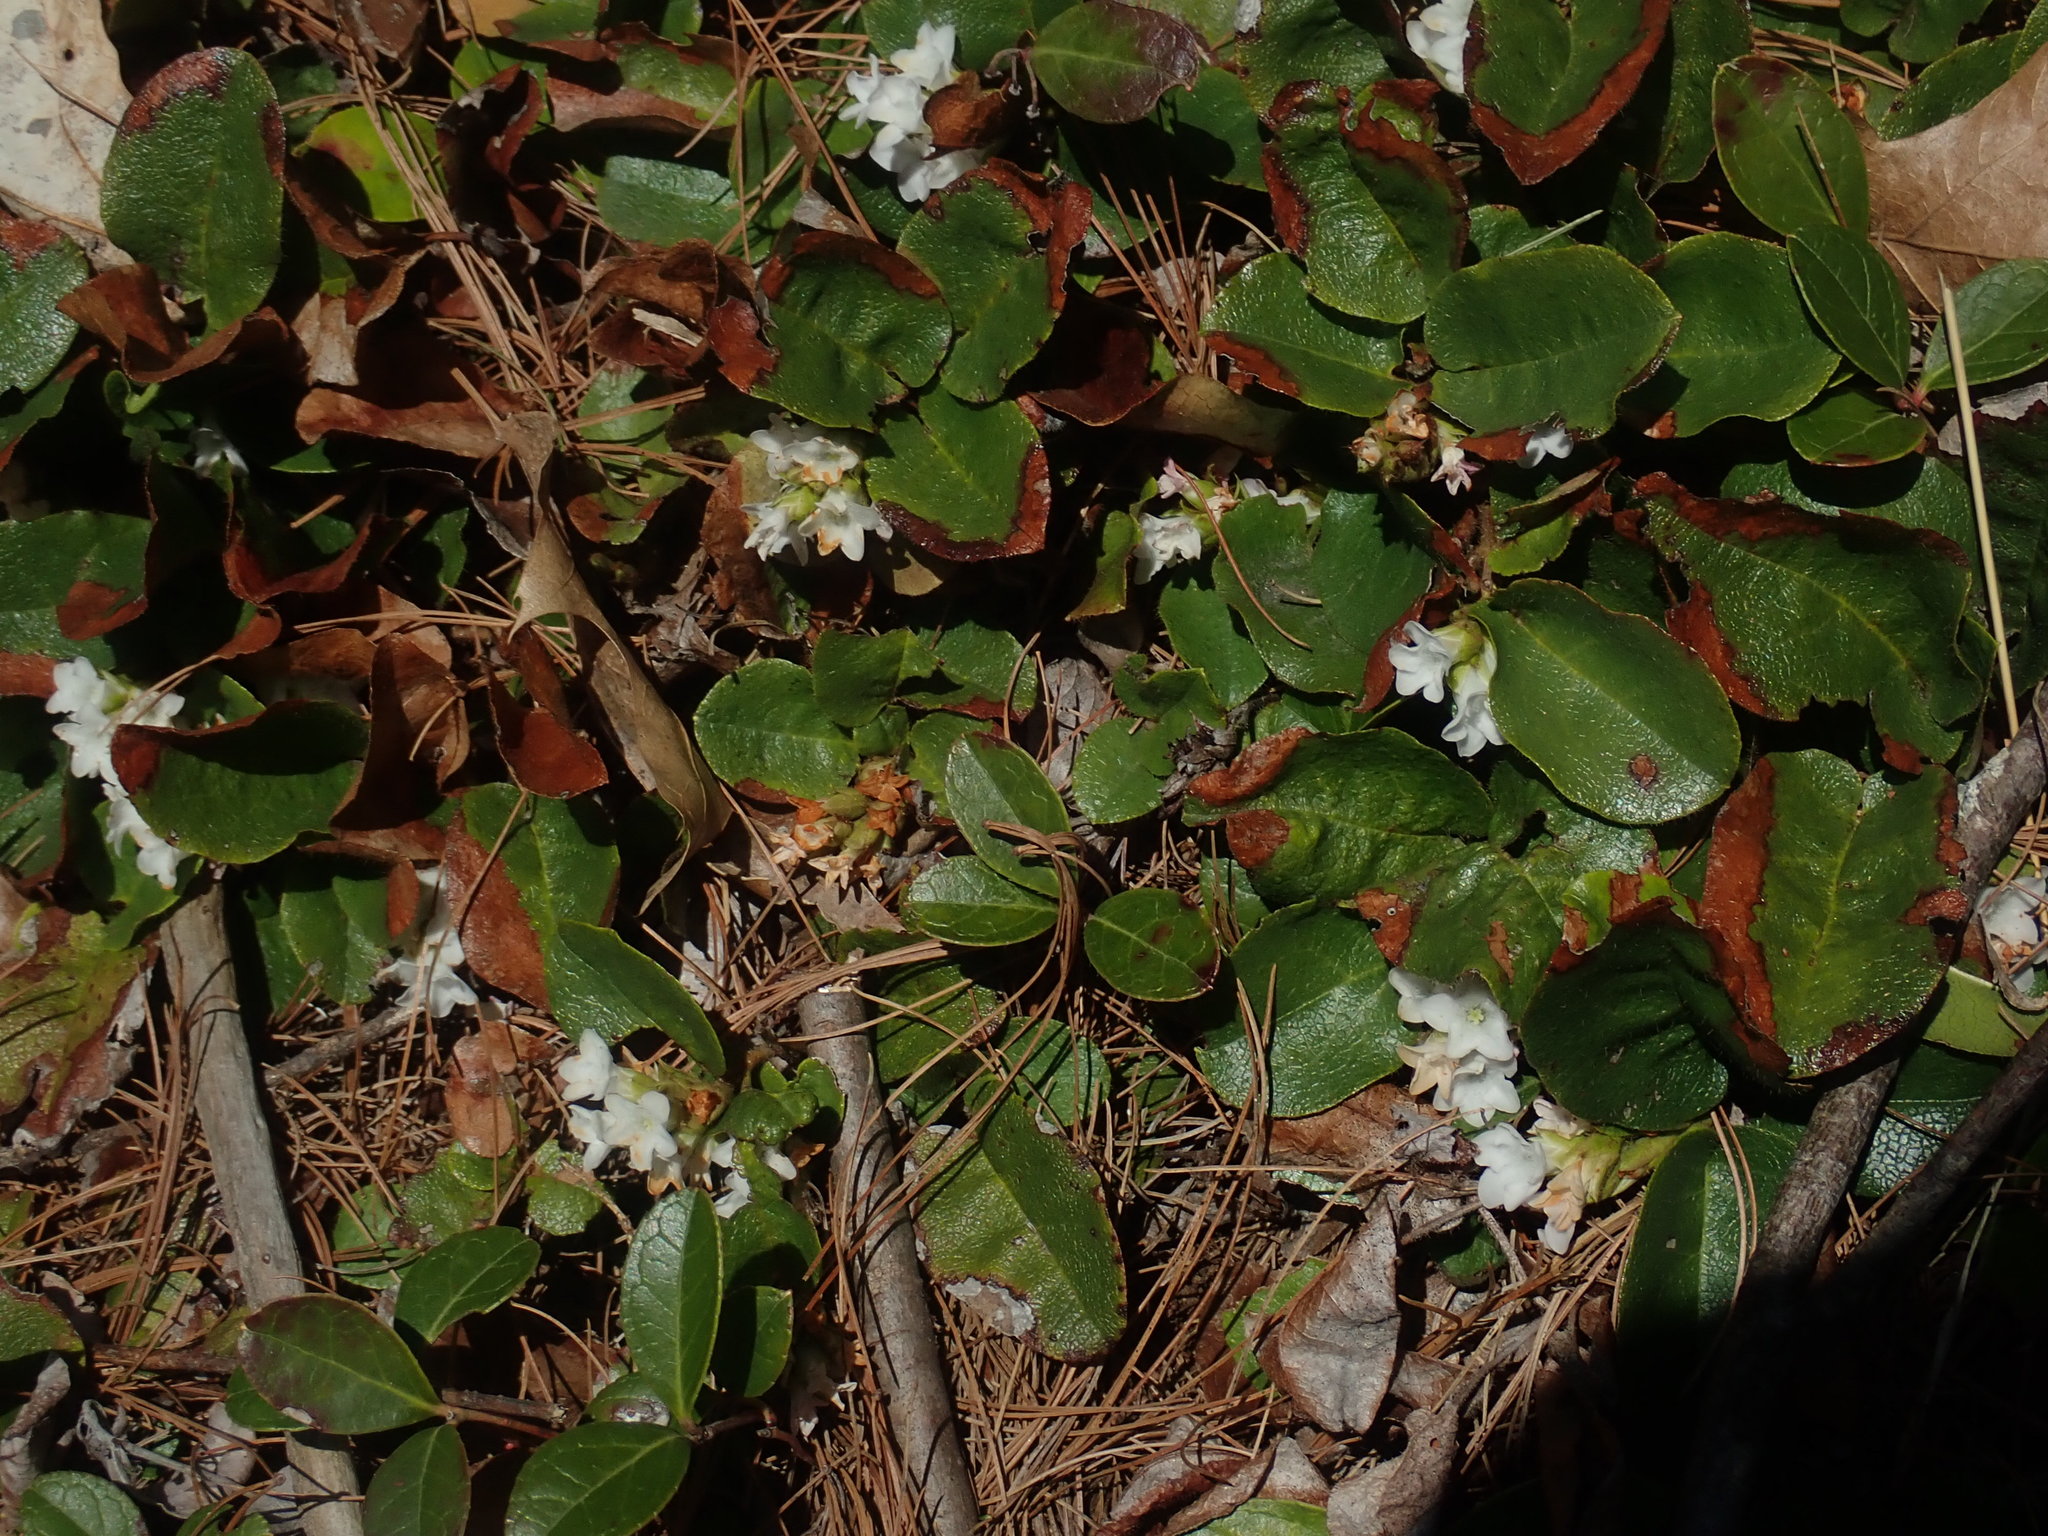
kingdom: Plantae
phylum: Tracheophyta
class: Magnoliopsida
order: Ericales
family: Ericaceae
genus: Epigaea
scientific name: Epigaea repens
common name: Gravelroot
